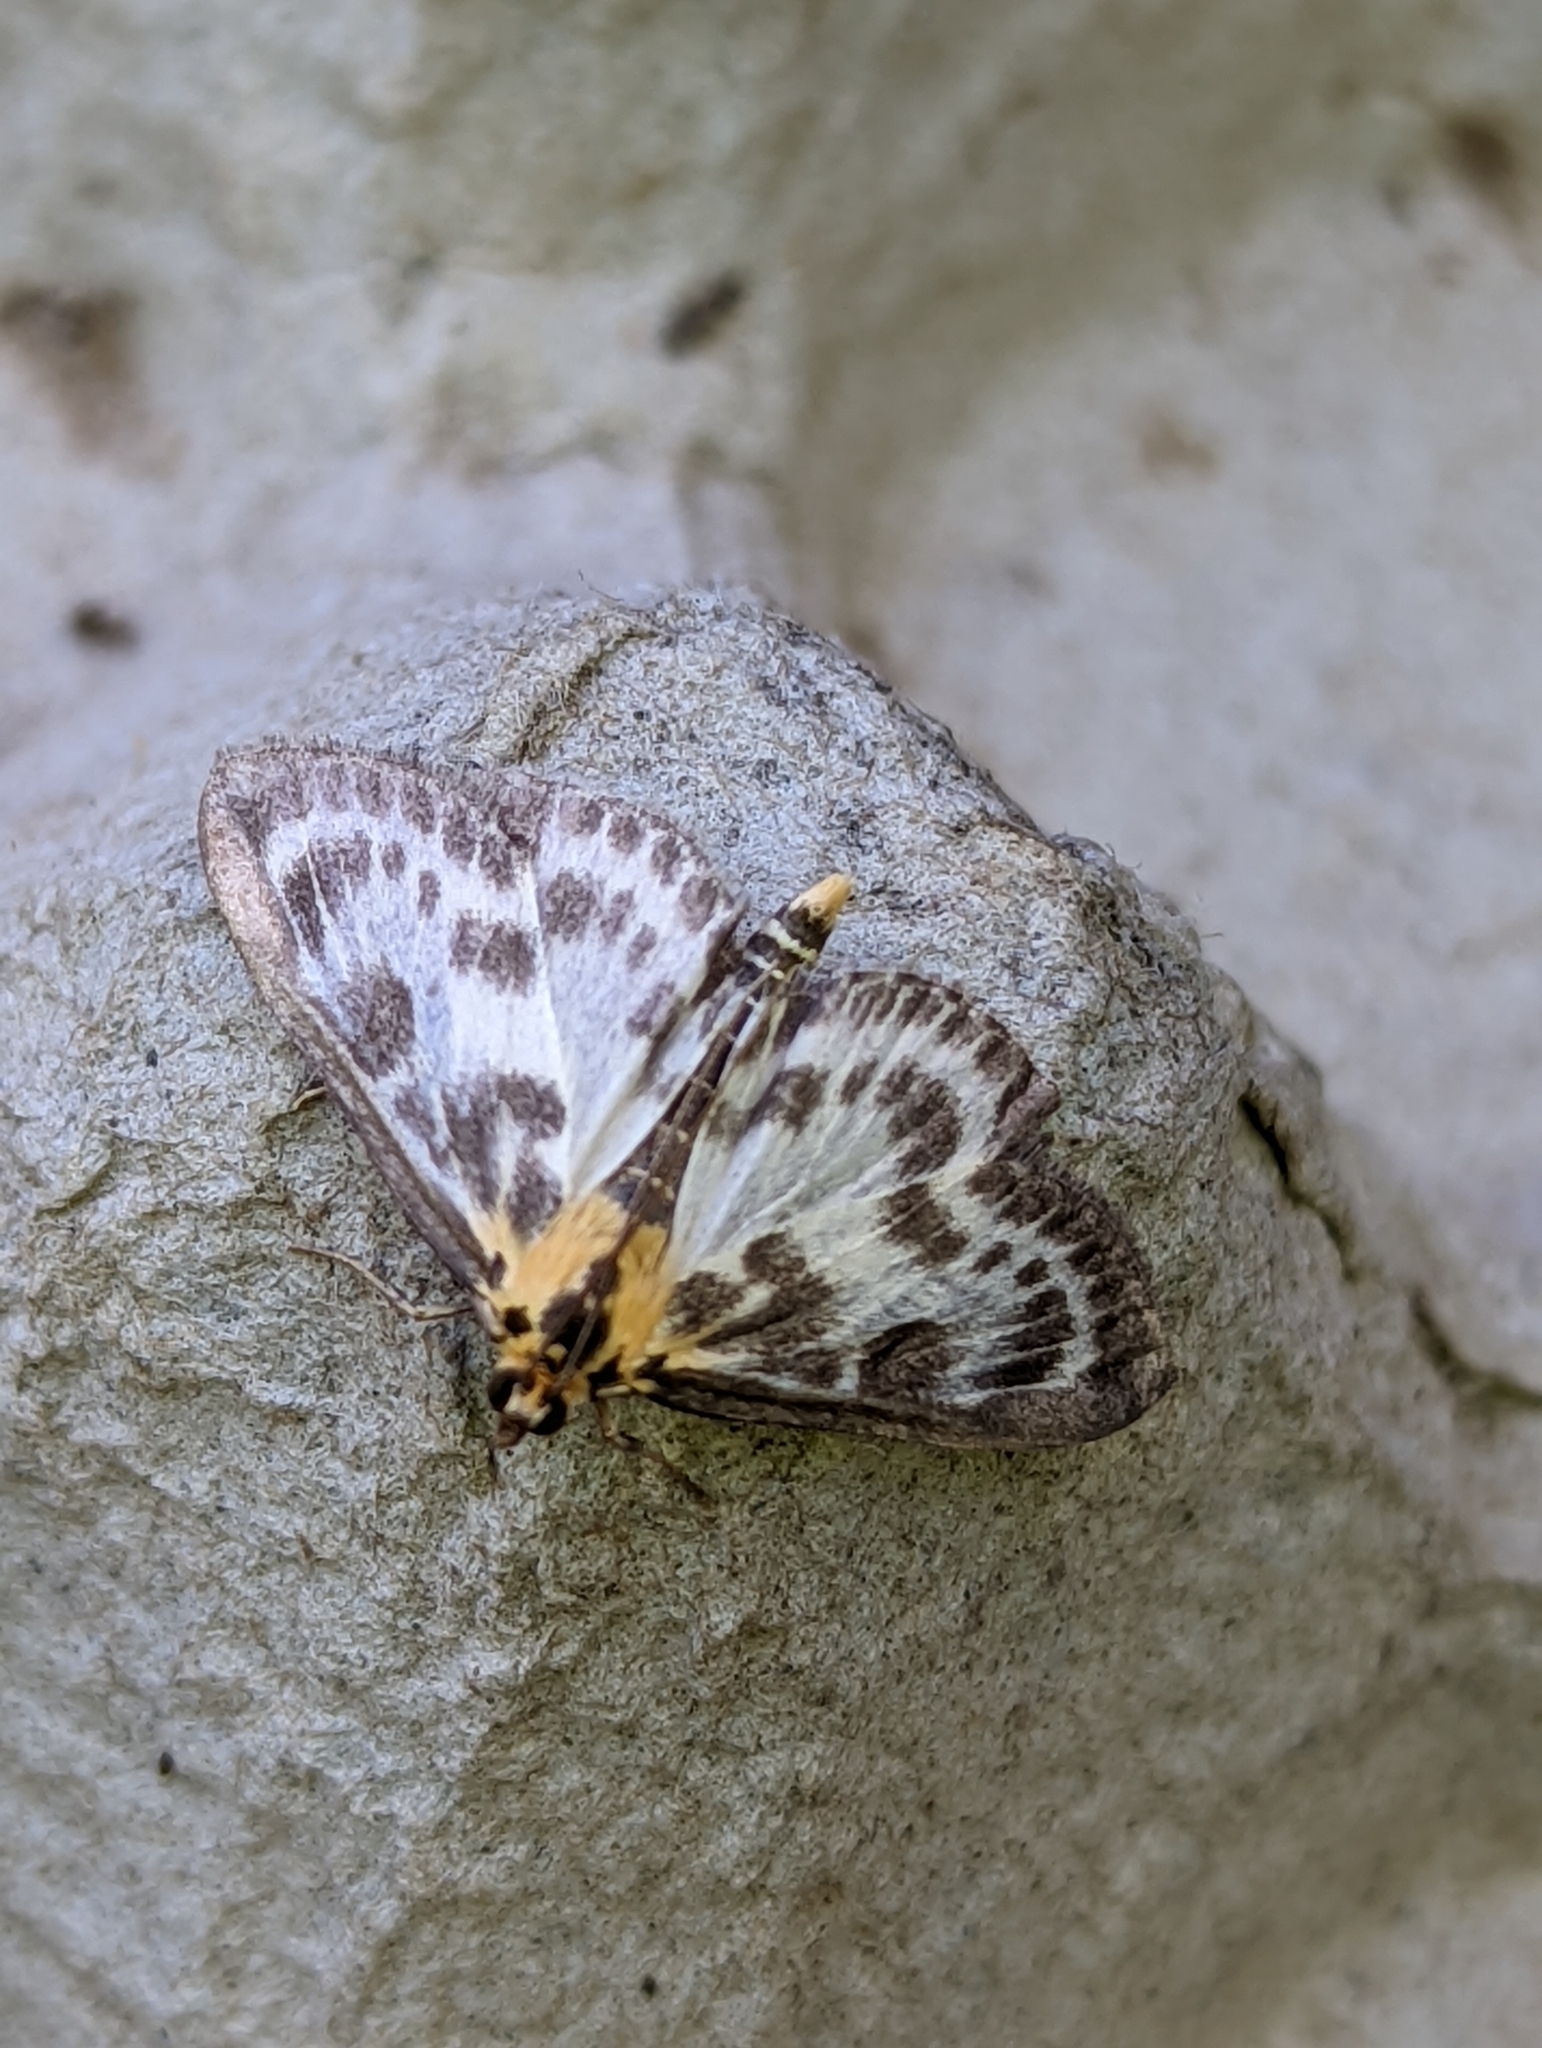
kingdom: Animalia
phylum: Arthropoda
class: Insecta
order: Lepidoptera
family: Crambidae
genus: Anania
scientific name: Anania hortulata
